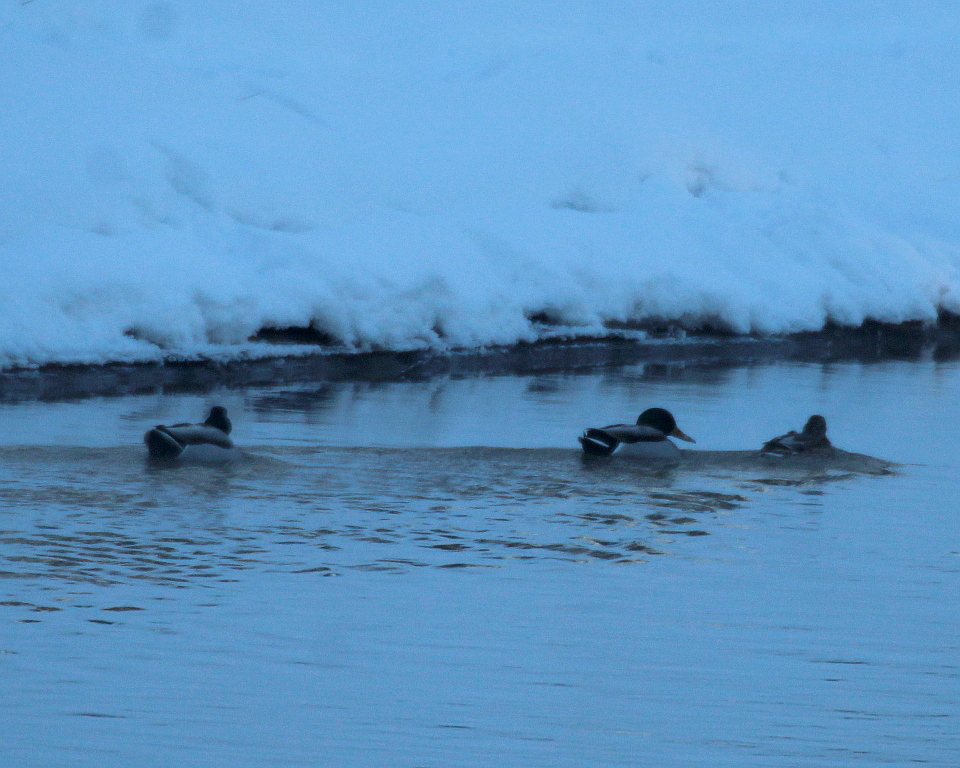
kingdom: Animalia
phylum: Chordata
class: Aves
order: Anseriformes
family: Anatidae
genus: Anas
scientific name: Anas platyrhynchos
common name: Mallard
